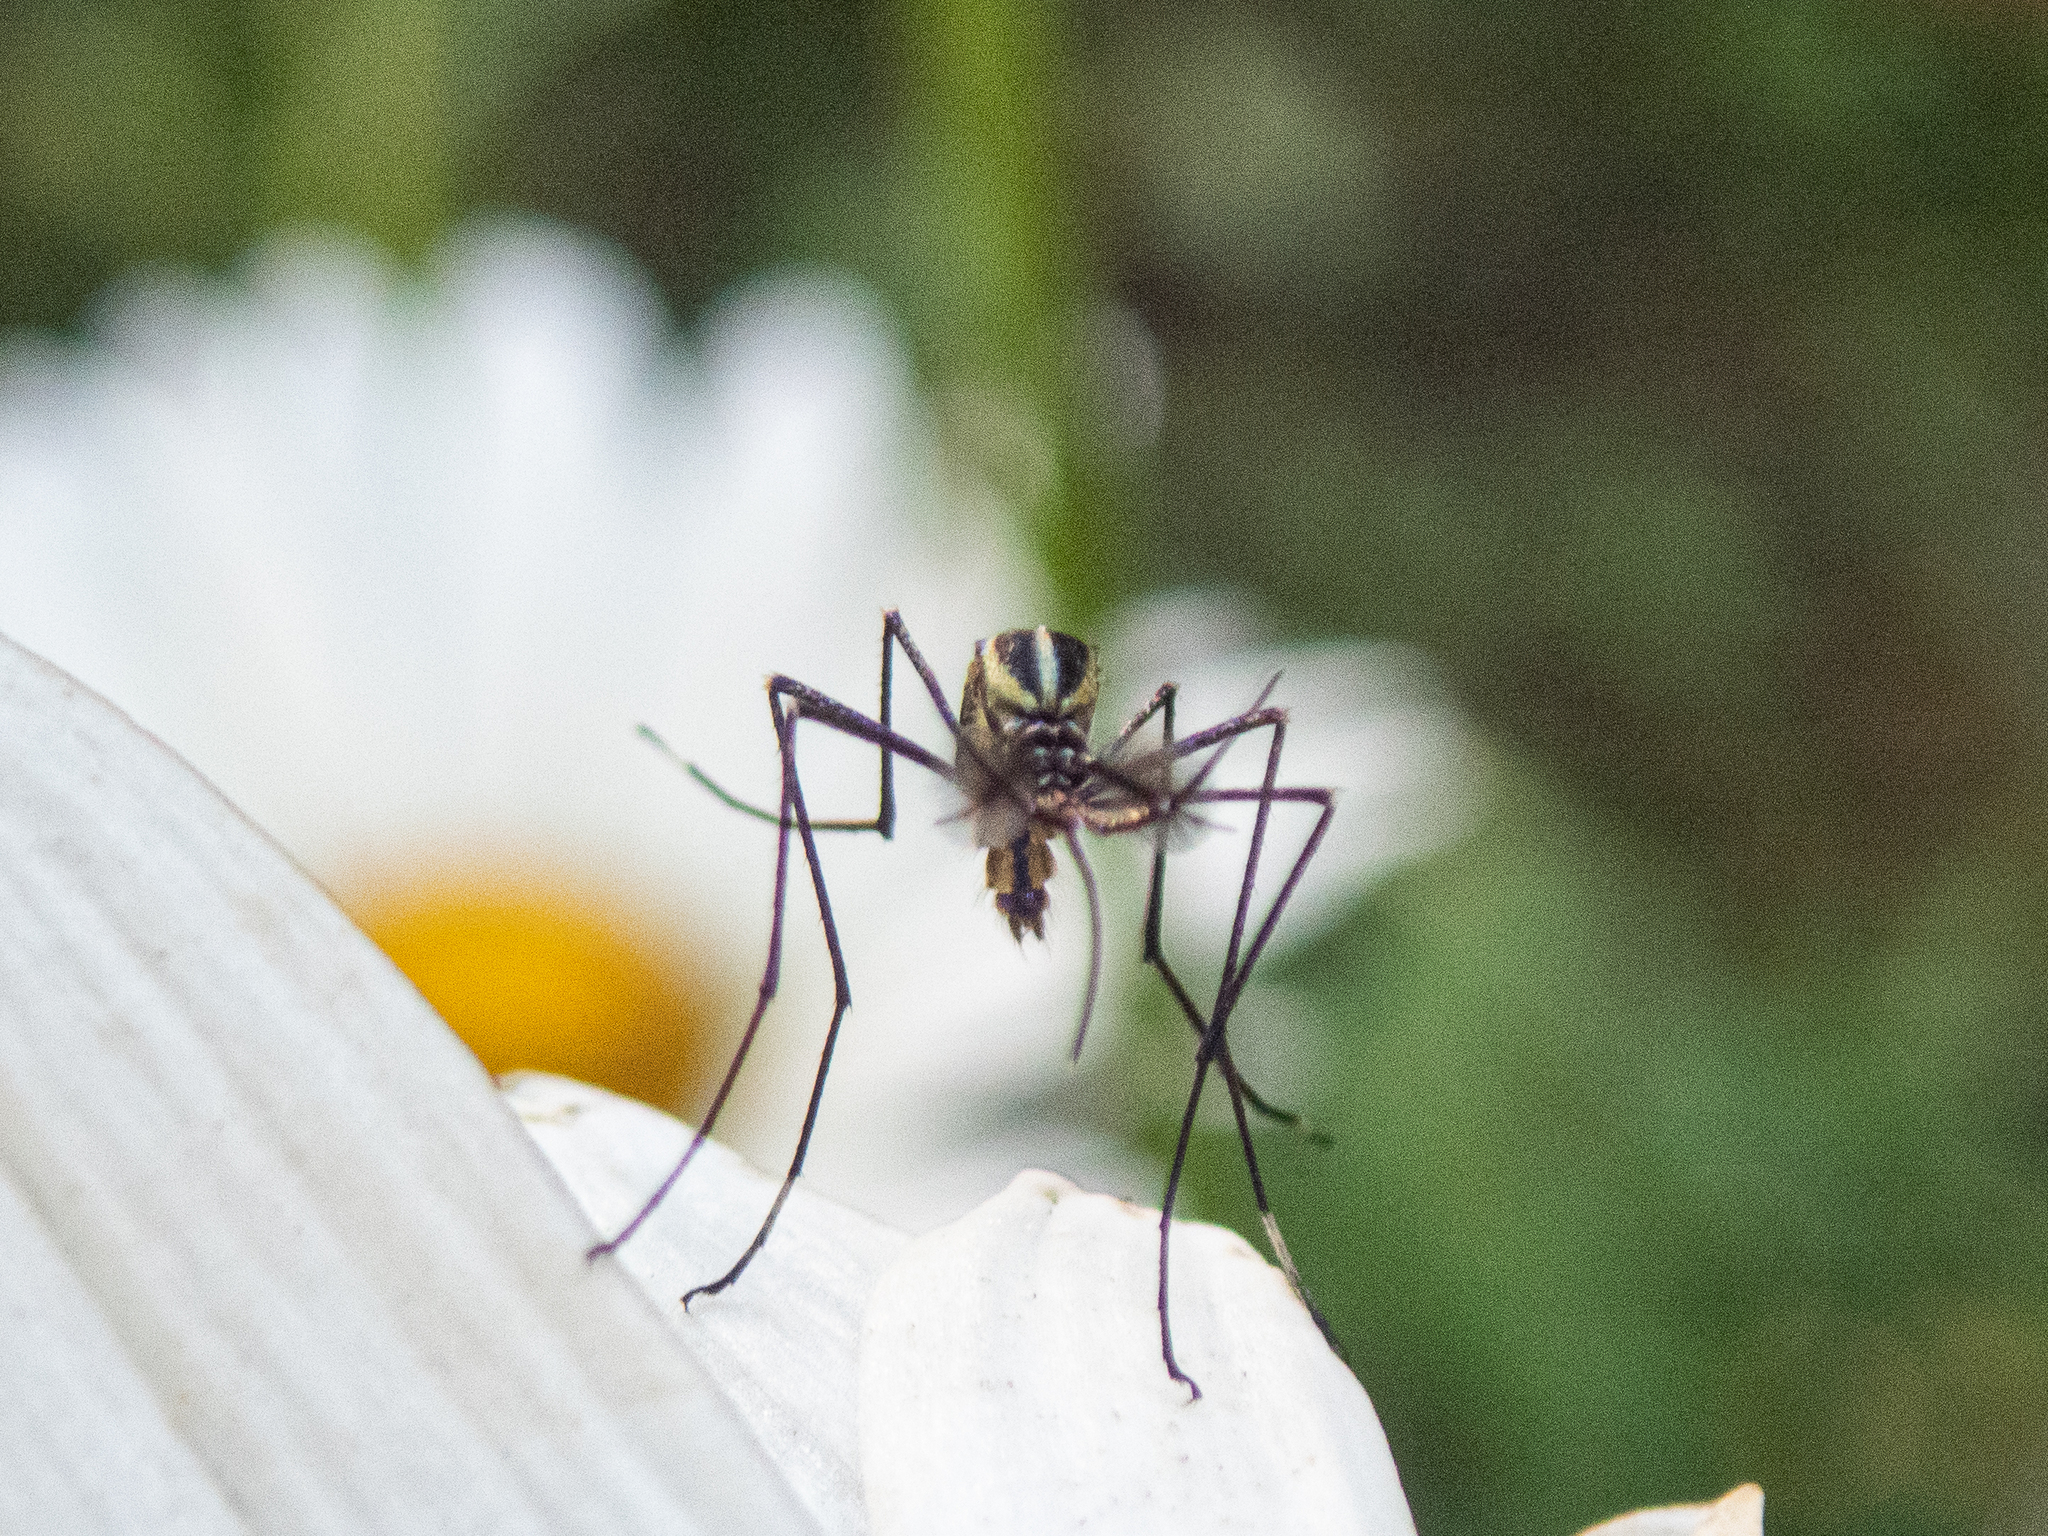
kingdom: Animalia
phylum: Arthropoda
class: Insecta
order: Diptera
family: Culicidae
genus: Toxorhynchites
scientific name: Toxorhynchites rutilus
